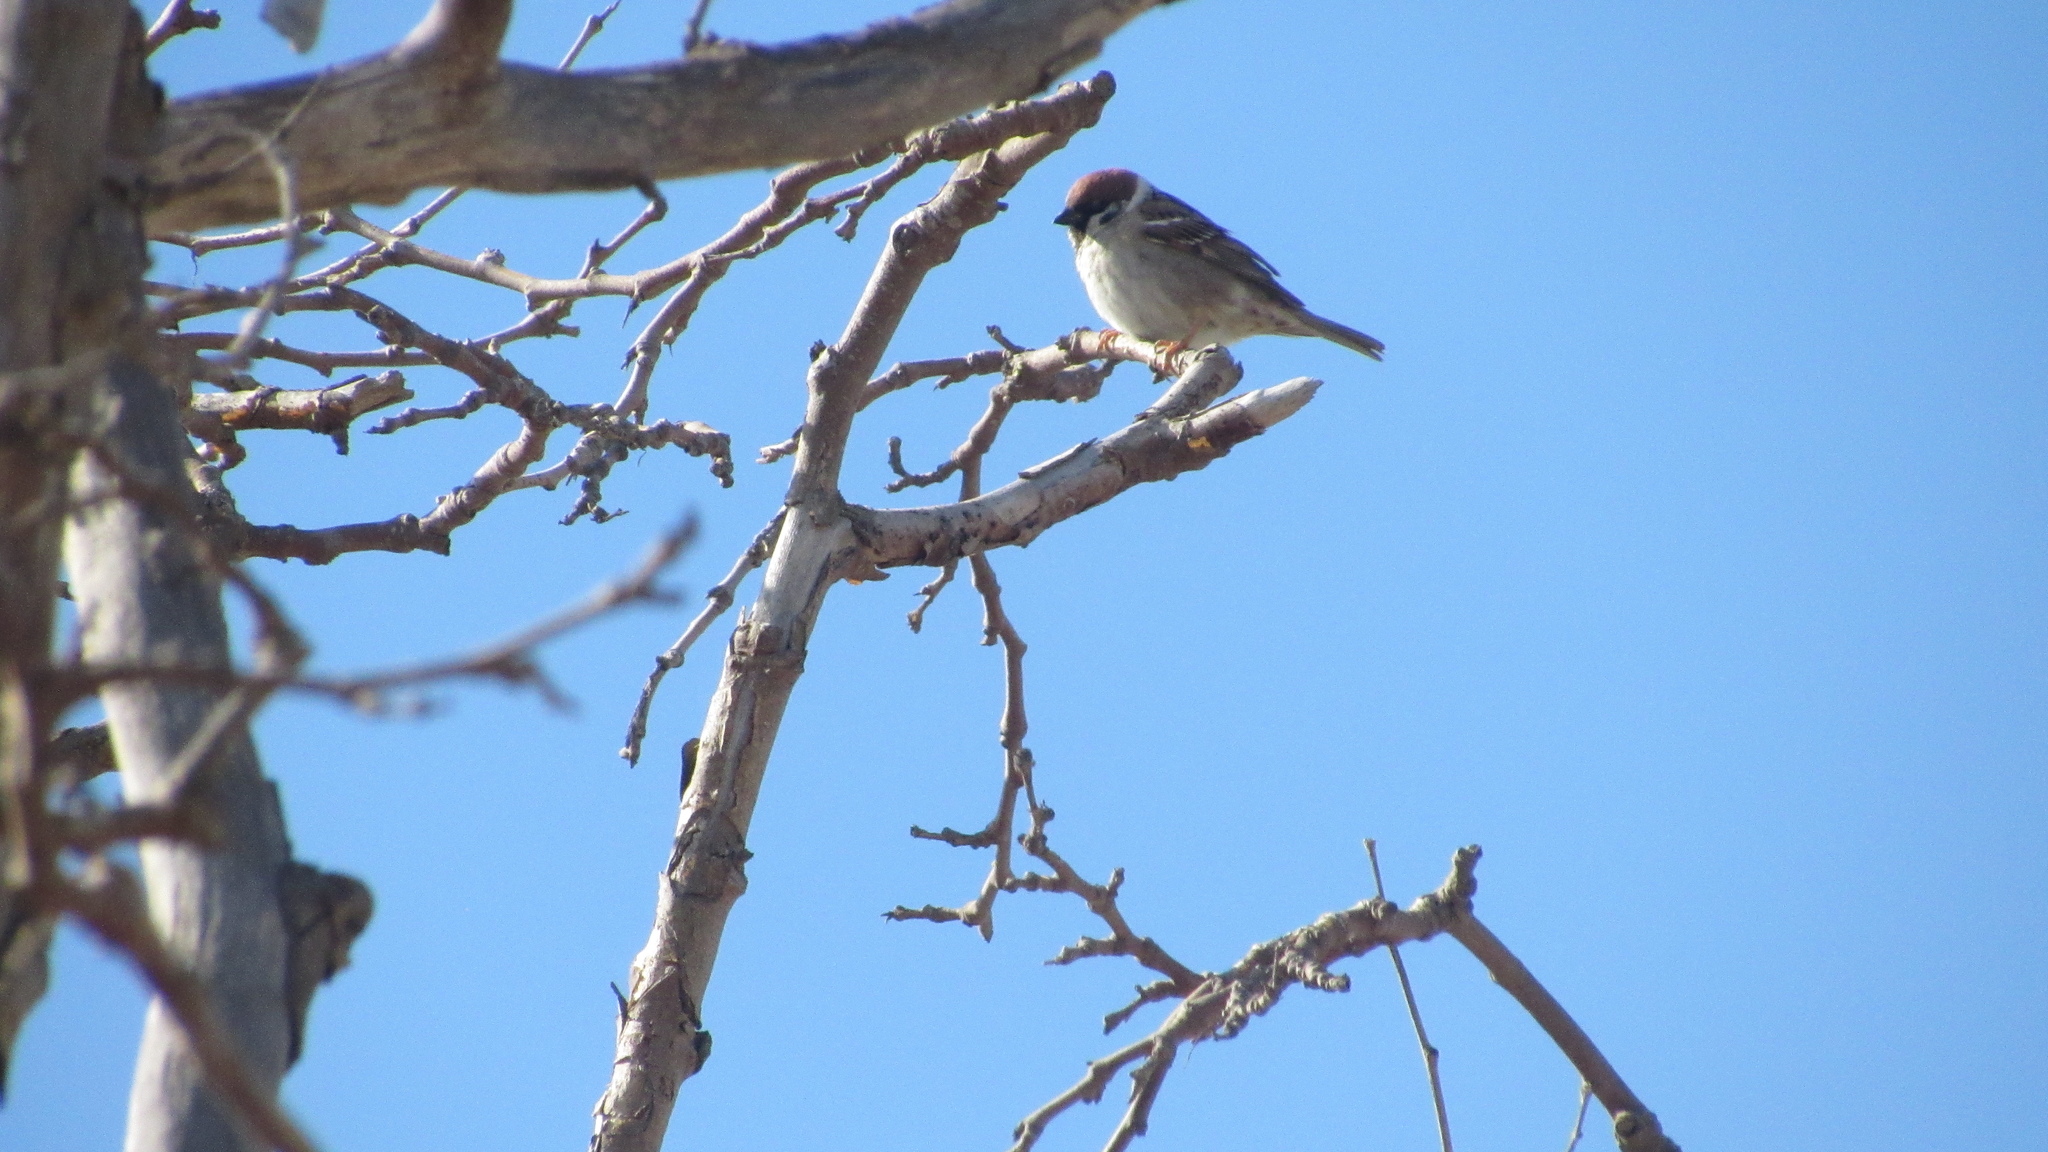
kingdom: Animalia
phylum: Chordata
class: Aves
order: Passeriformes
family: Passeridae
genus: Passer
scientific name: Passer montanus
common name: Eurasian tree sparrow
